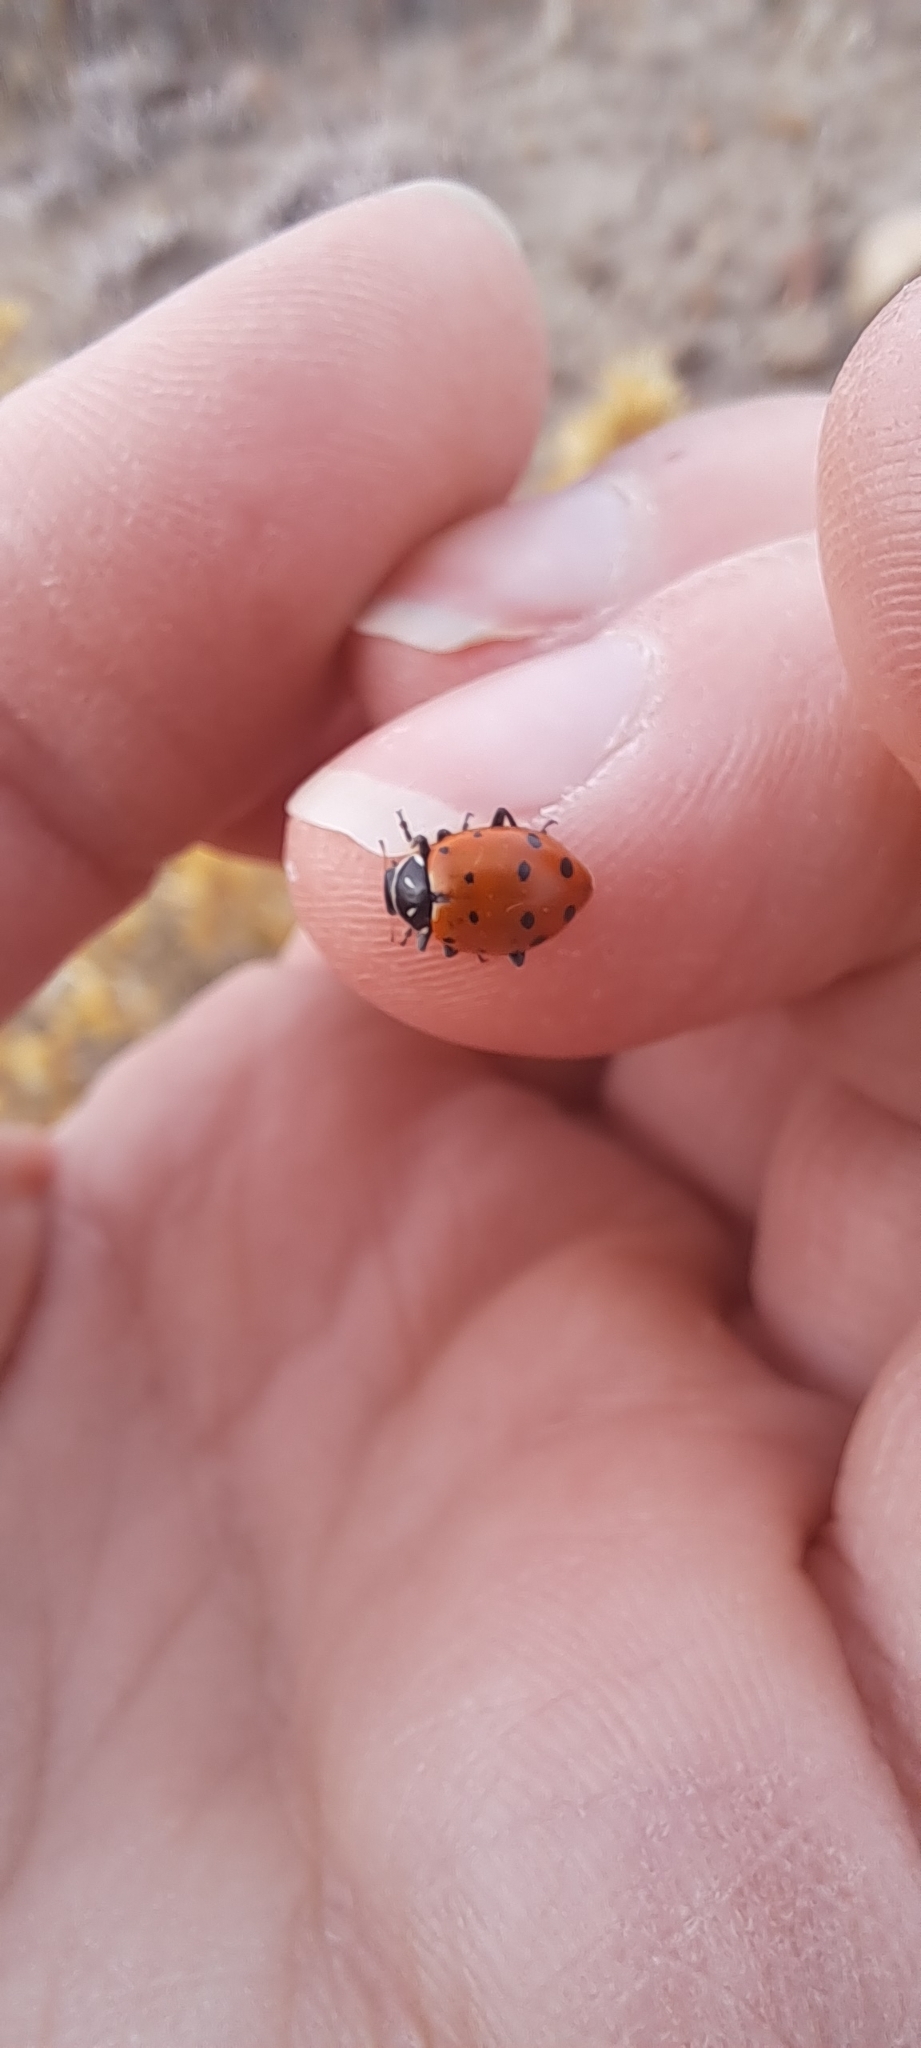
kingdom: Animalia
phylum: Arthropoda
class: Insecta
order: Coleoptera
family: Coccinellidae
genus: Hippodamia
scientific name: Hippodamia convergens
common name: Convergent lady beetle
